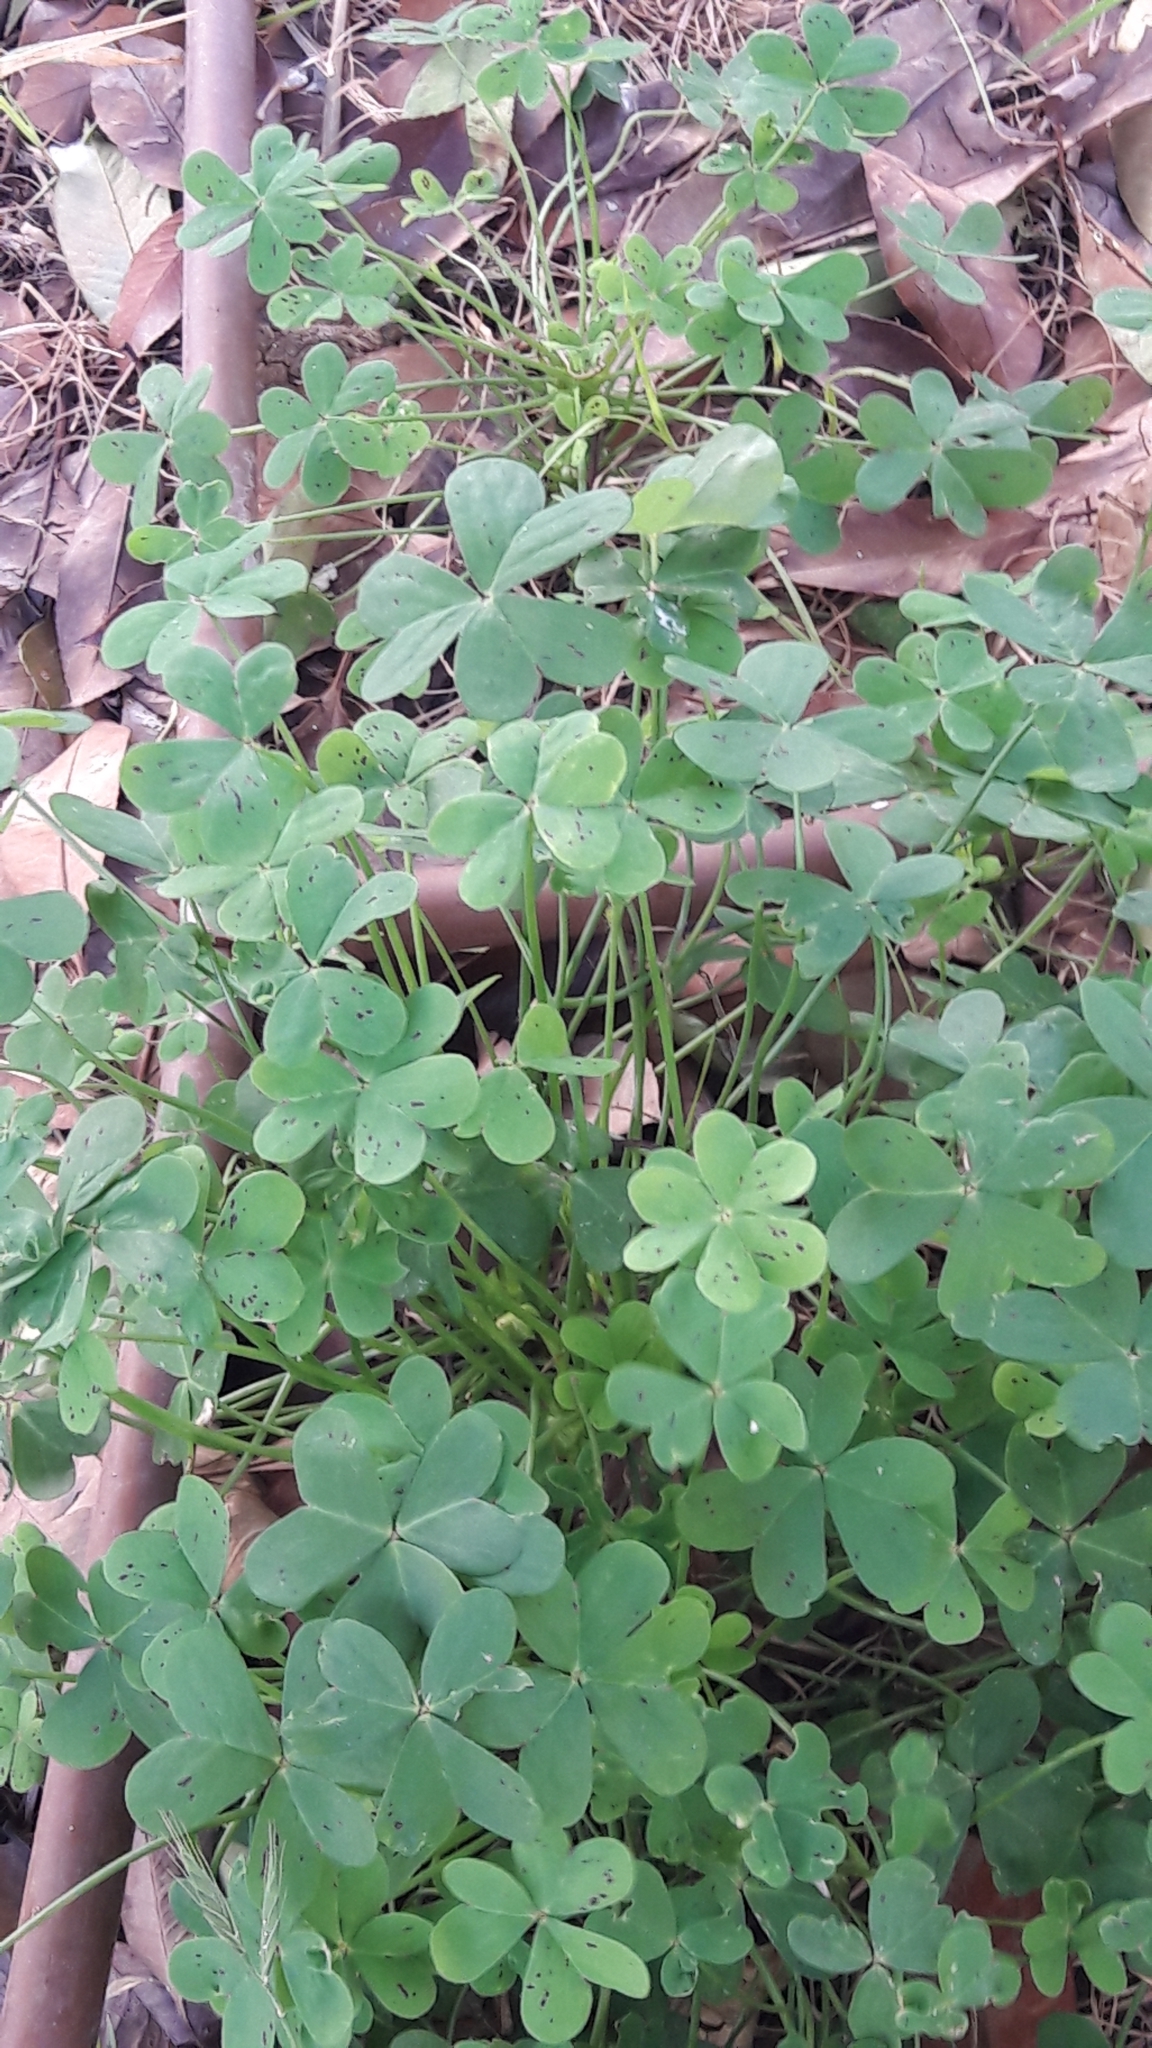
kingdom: Plantae
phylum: Tracheophyta
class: Magnoliopsida
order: Oxalidales
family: Oxalidaceae
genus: Oxalis
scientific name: Oxalis pes-caprae
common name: Bermuda-buttercup
